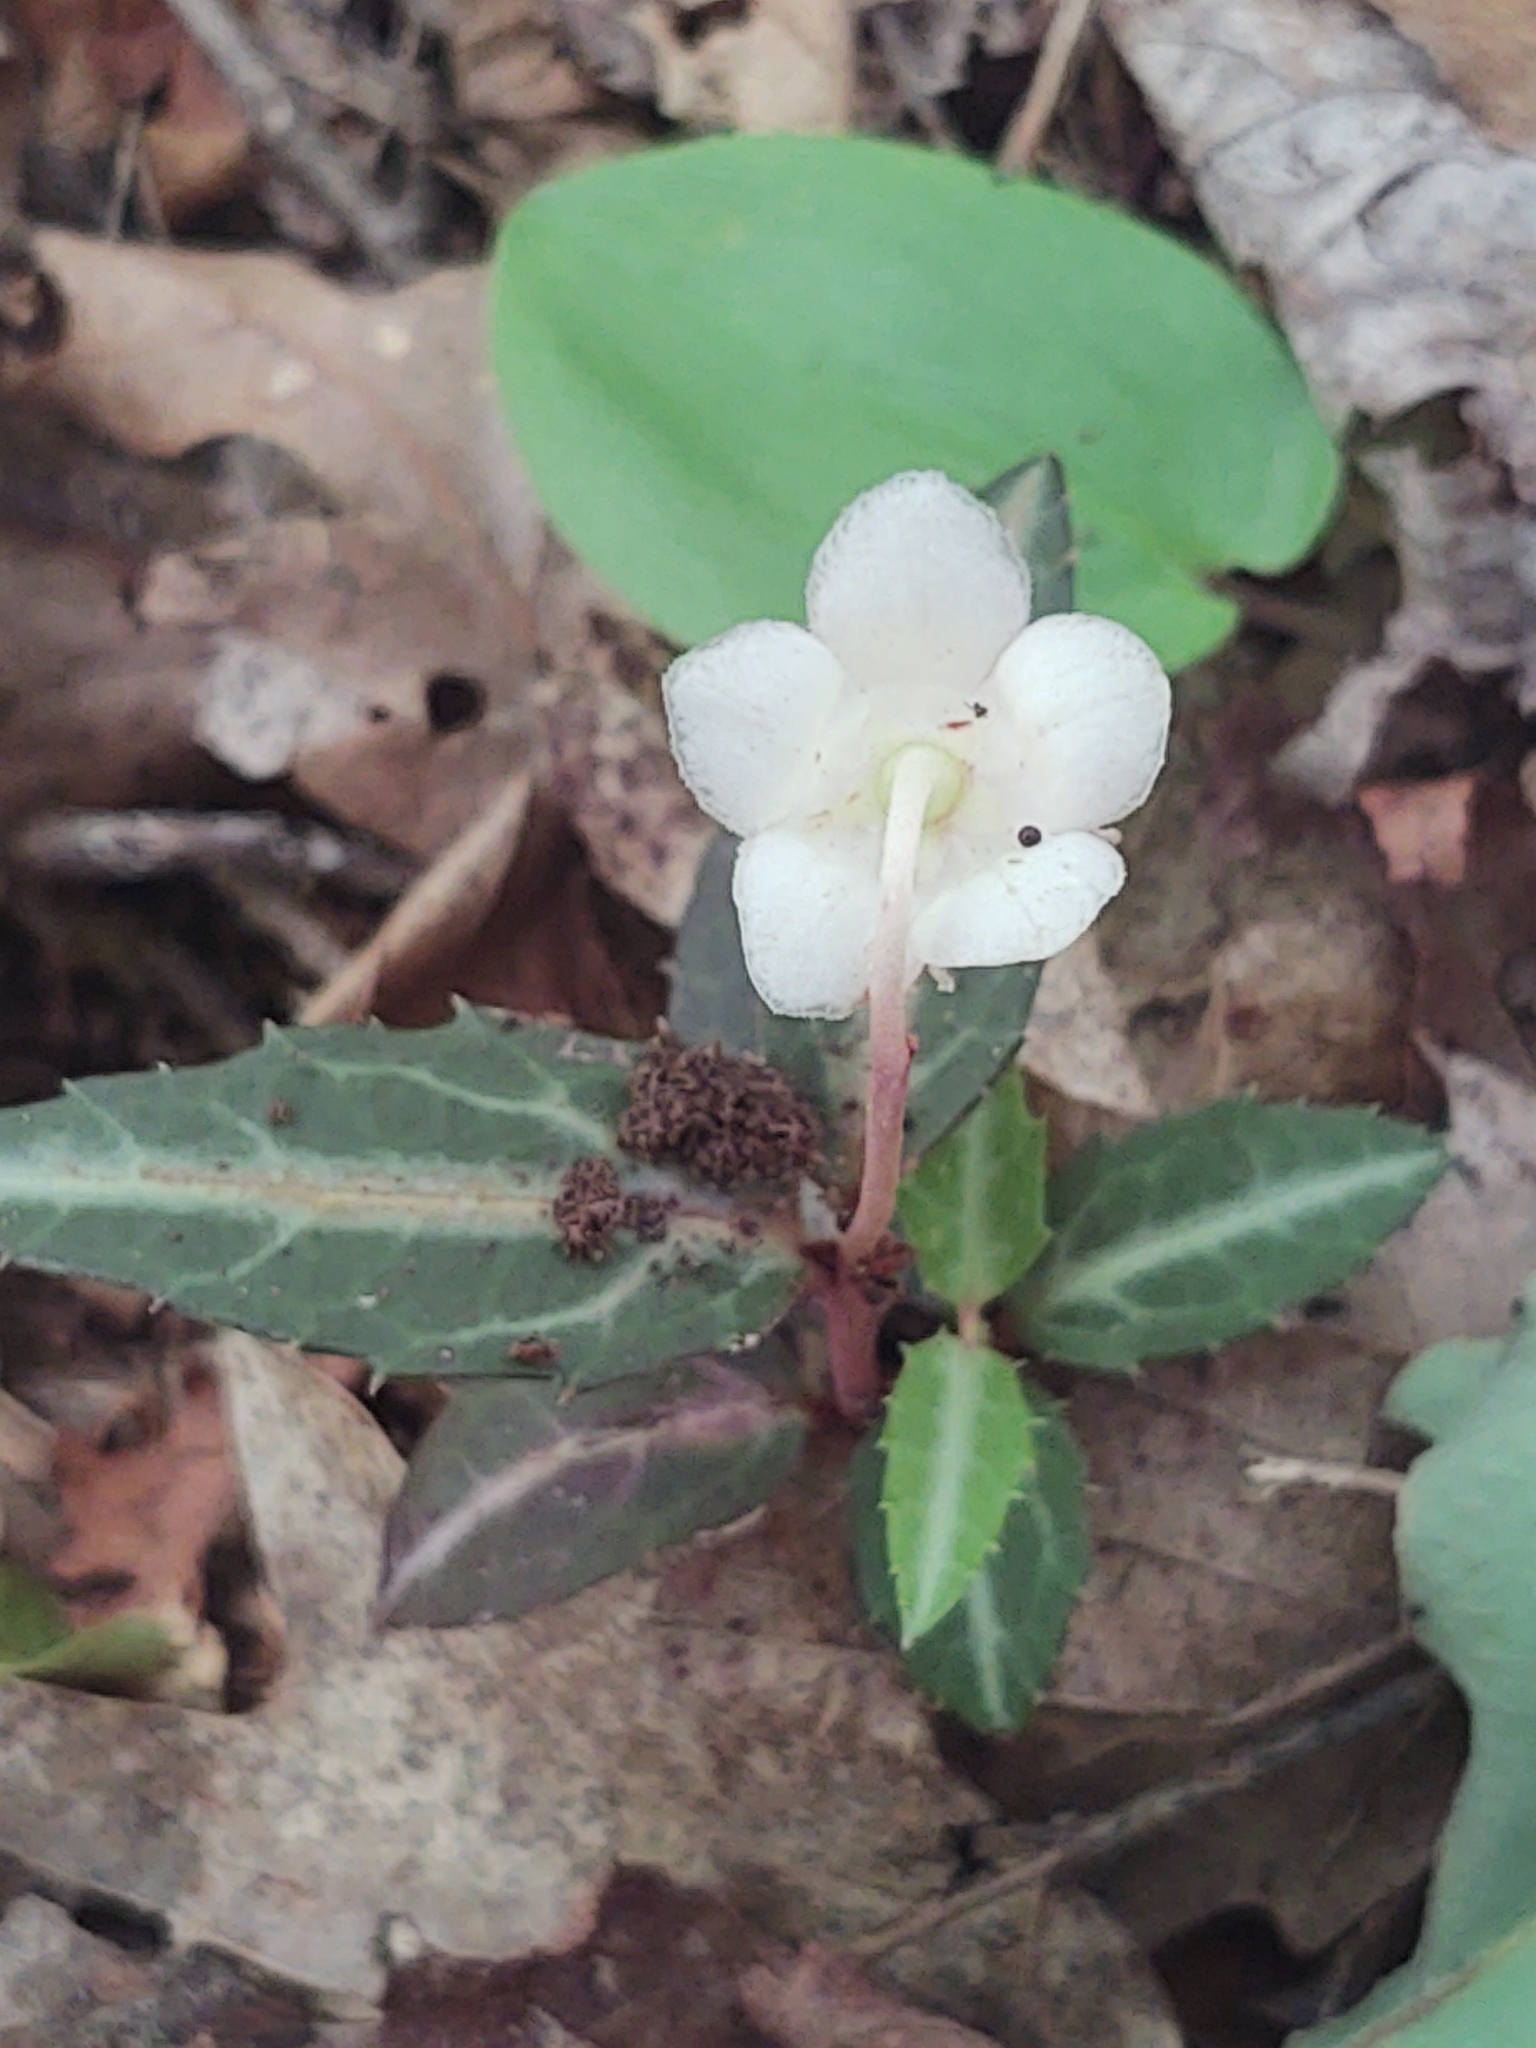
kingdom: Plantae
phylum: Tracheophyta
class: Magnoliopsida
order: Ericales
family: Ericaceae
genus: Chimaphila
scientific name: Chimaphila maculata
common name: Spotted pipsissewa
